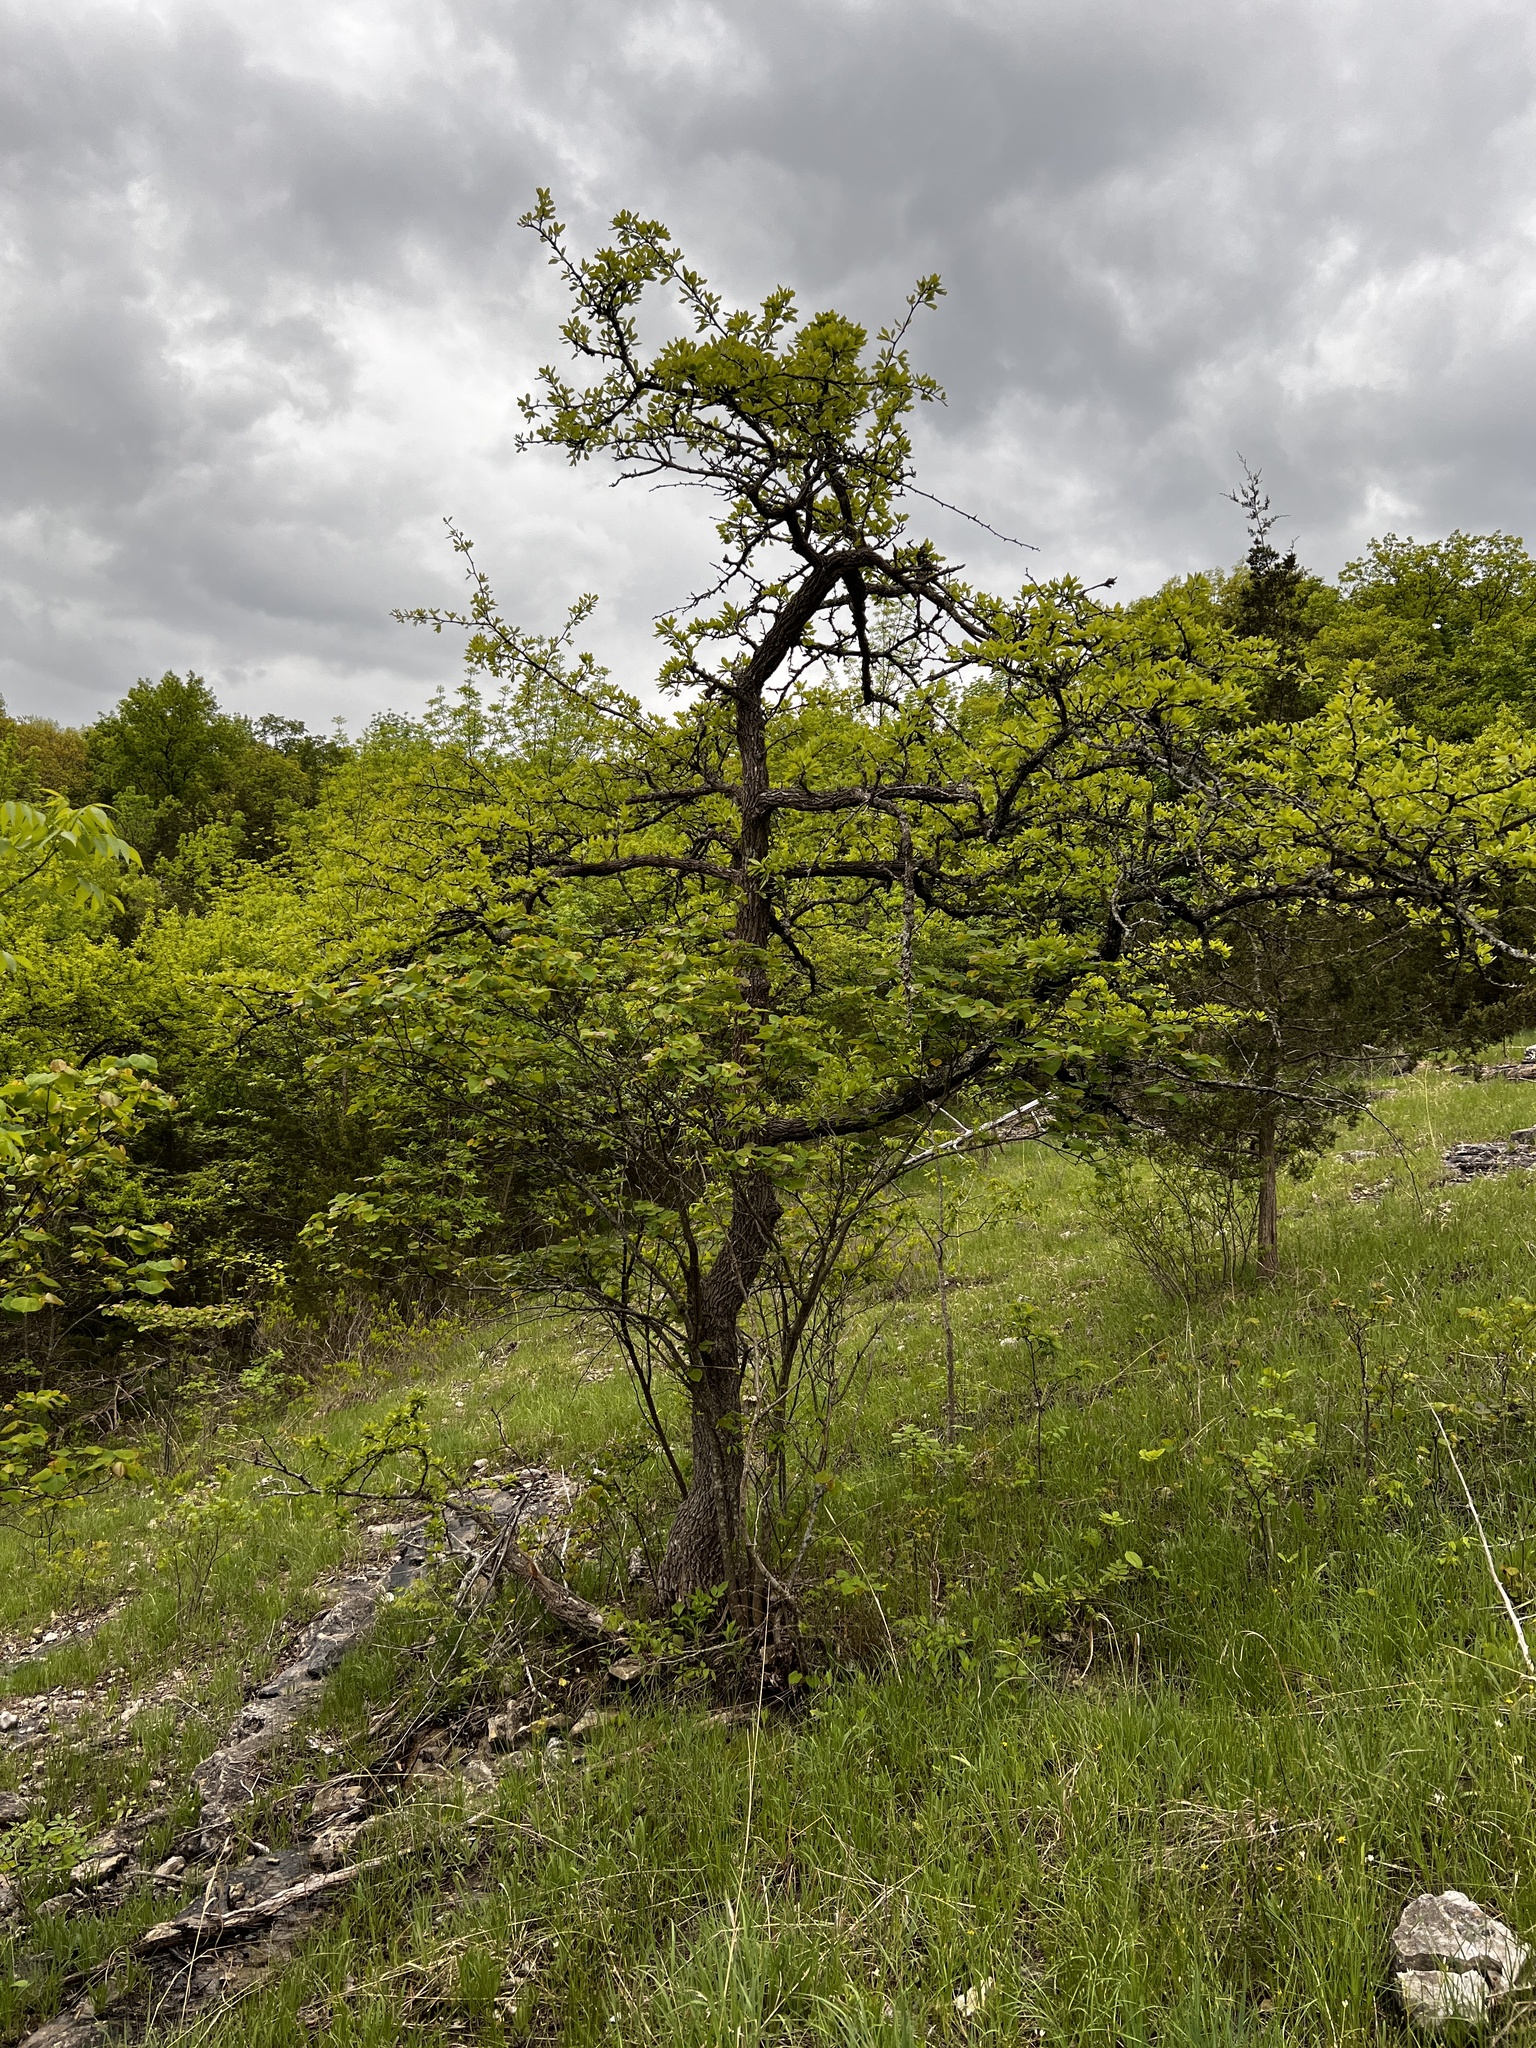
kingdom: Plantae
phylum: Tracheophyta
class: Magnoliopsida
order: Ericales
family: Sapotaceae
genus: Sideroxylon
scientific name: Sideroxylon lanuginosum
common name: Chittamwood
